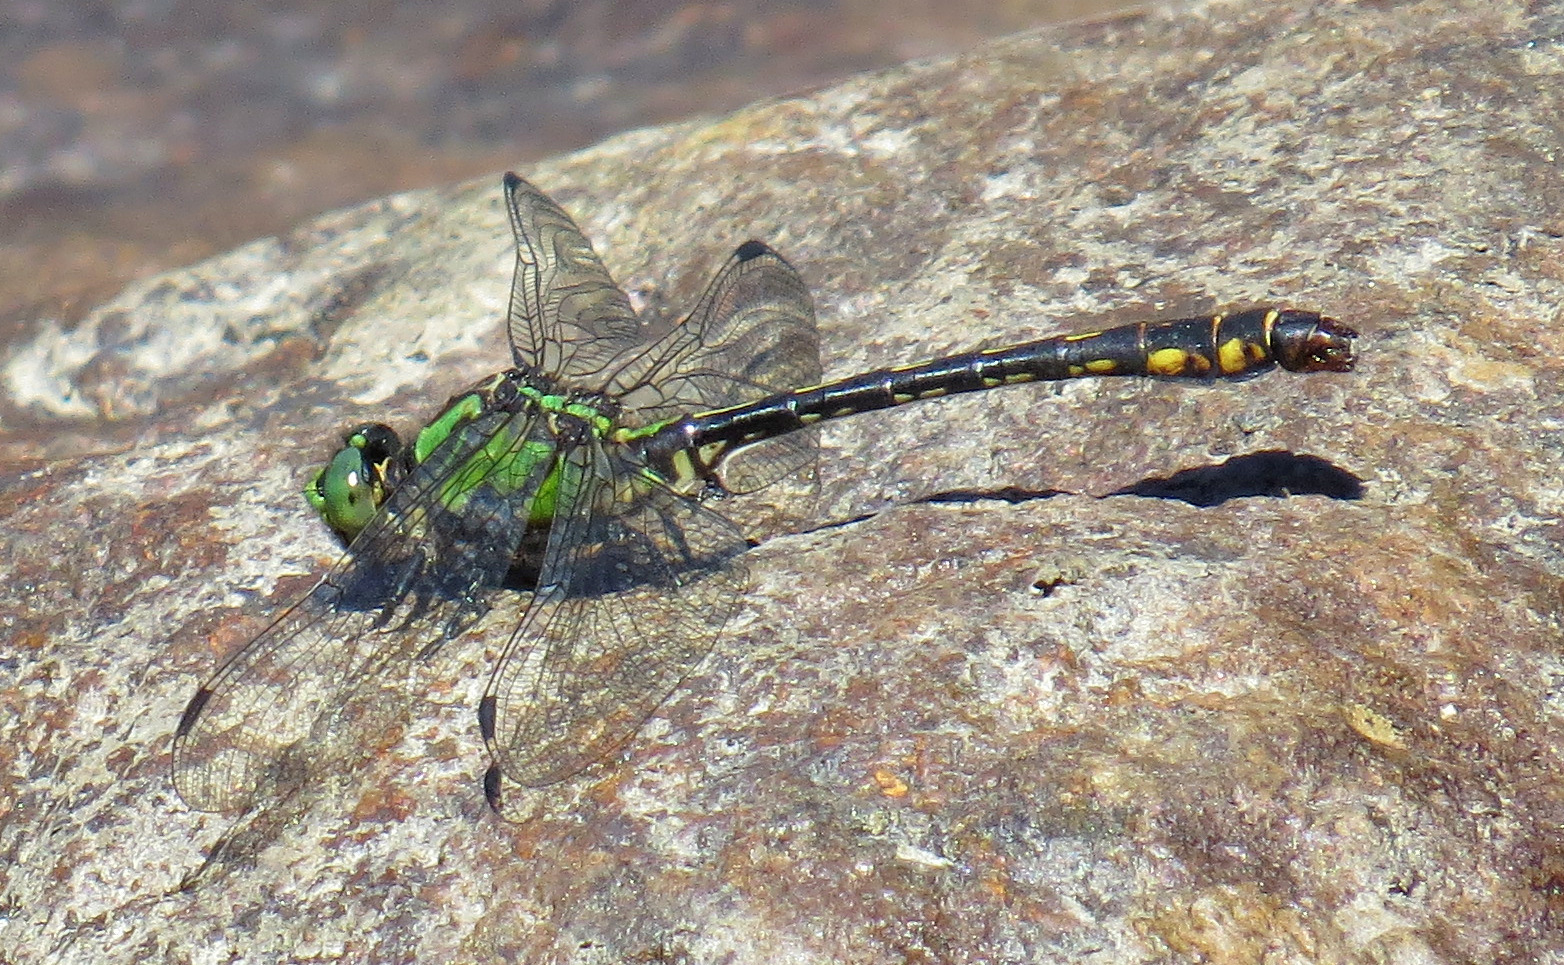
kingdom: Animalia
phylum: Arthropoda
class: Insecta
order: Odonata
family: Gomphidae
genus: Ophiogomphus
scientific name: Ophiogomphus mainensis
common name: Maine snaketail
